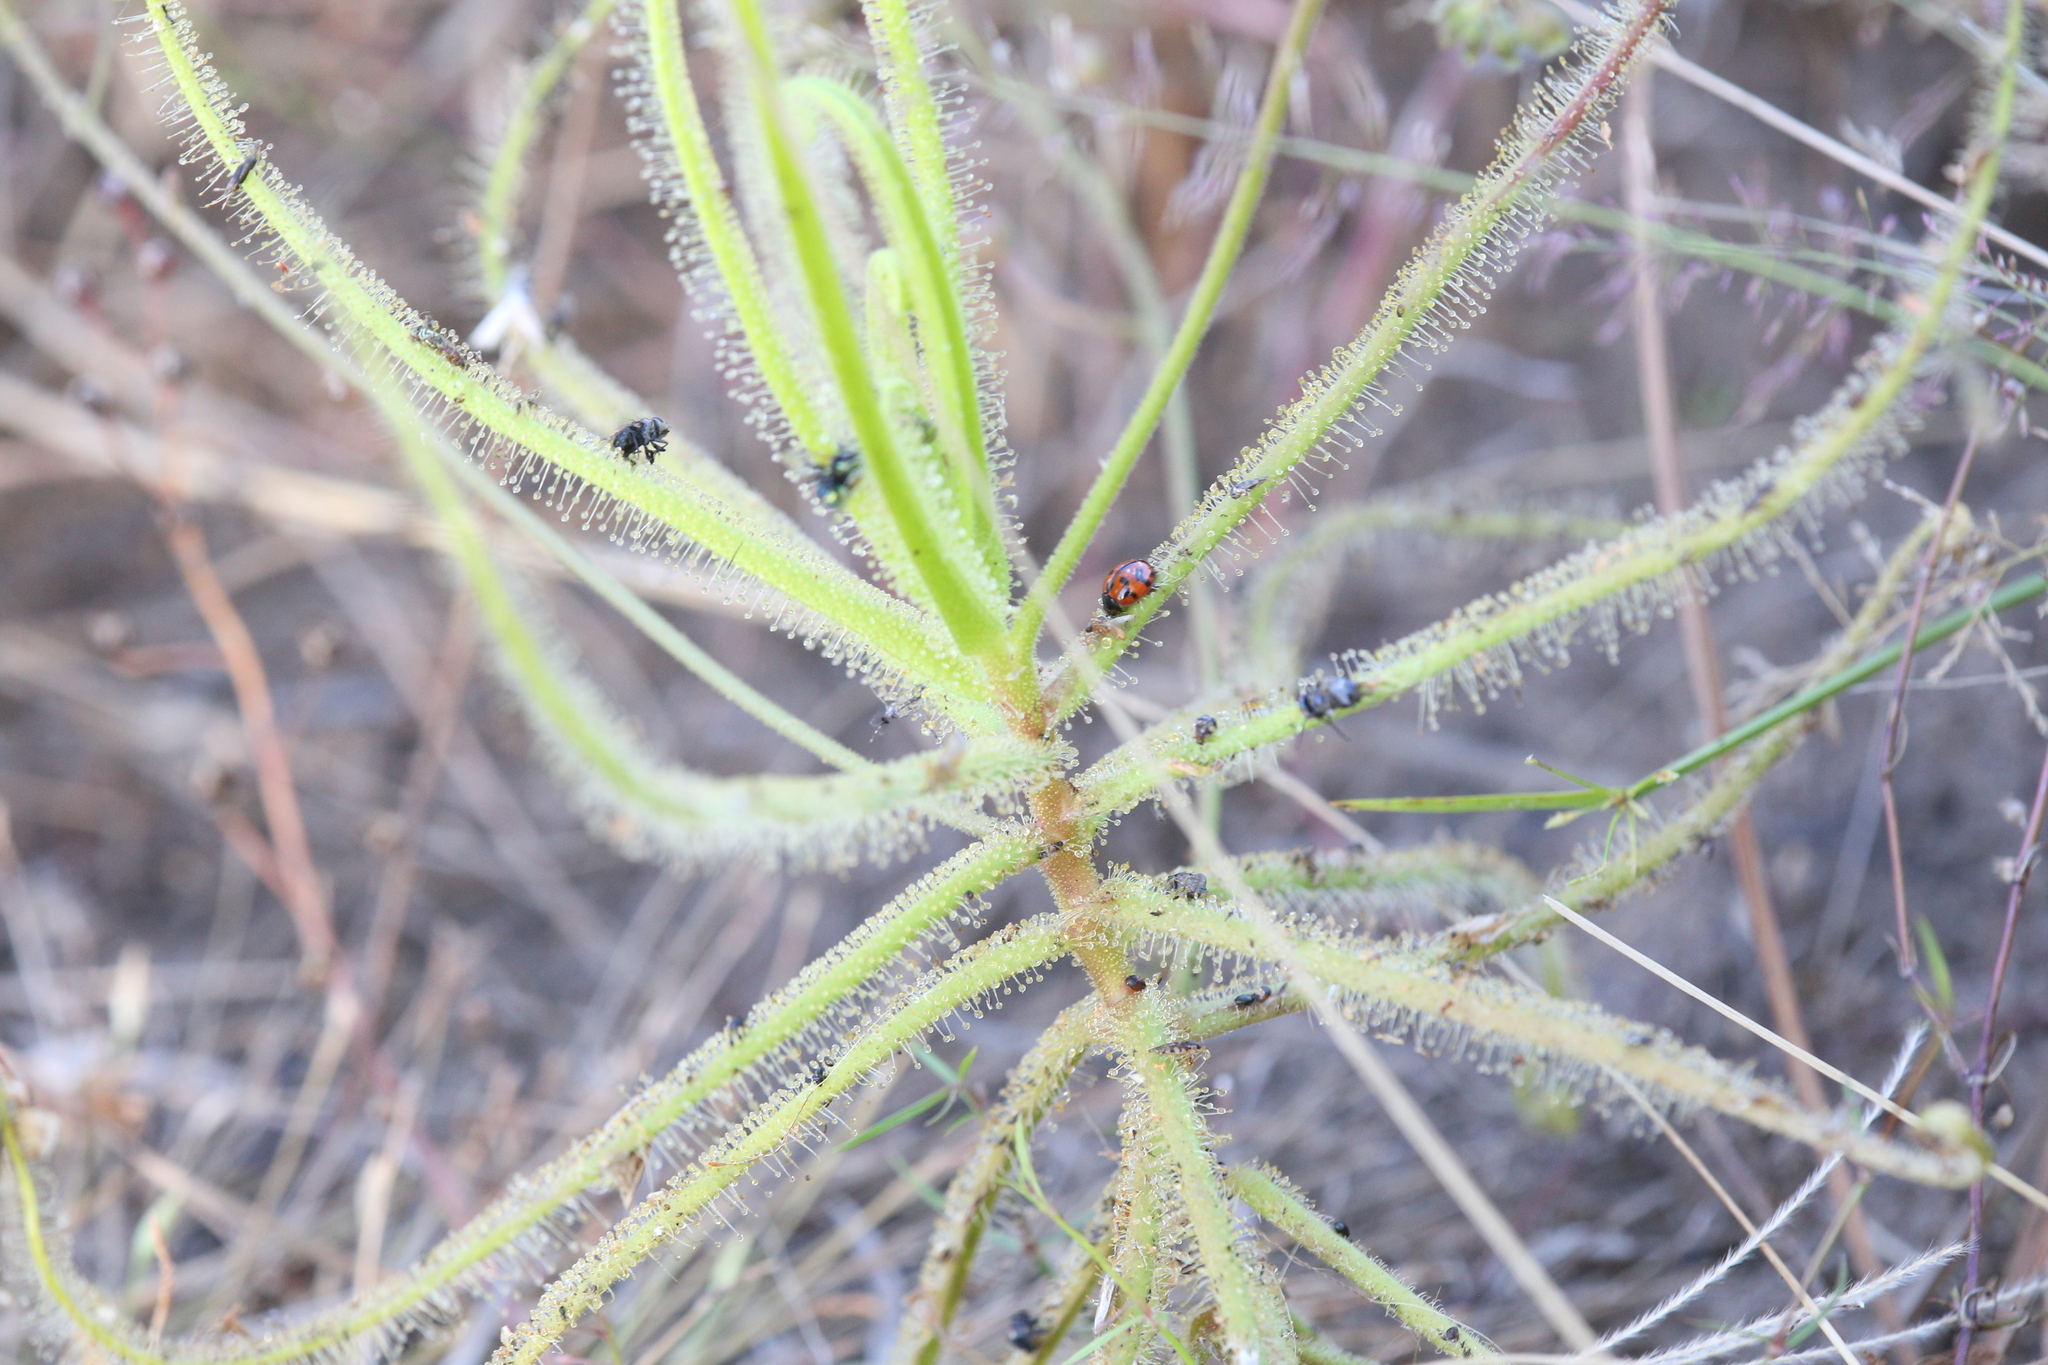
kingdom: Plantae
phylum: Tracheophyta
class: Magnoliopsida
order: Caryophyllales
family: Droseraceae
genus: Drosera
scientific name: Drosera finlaysoniana
